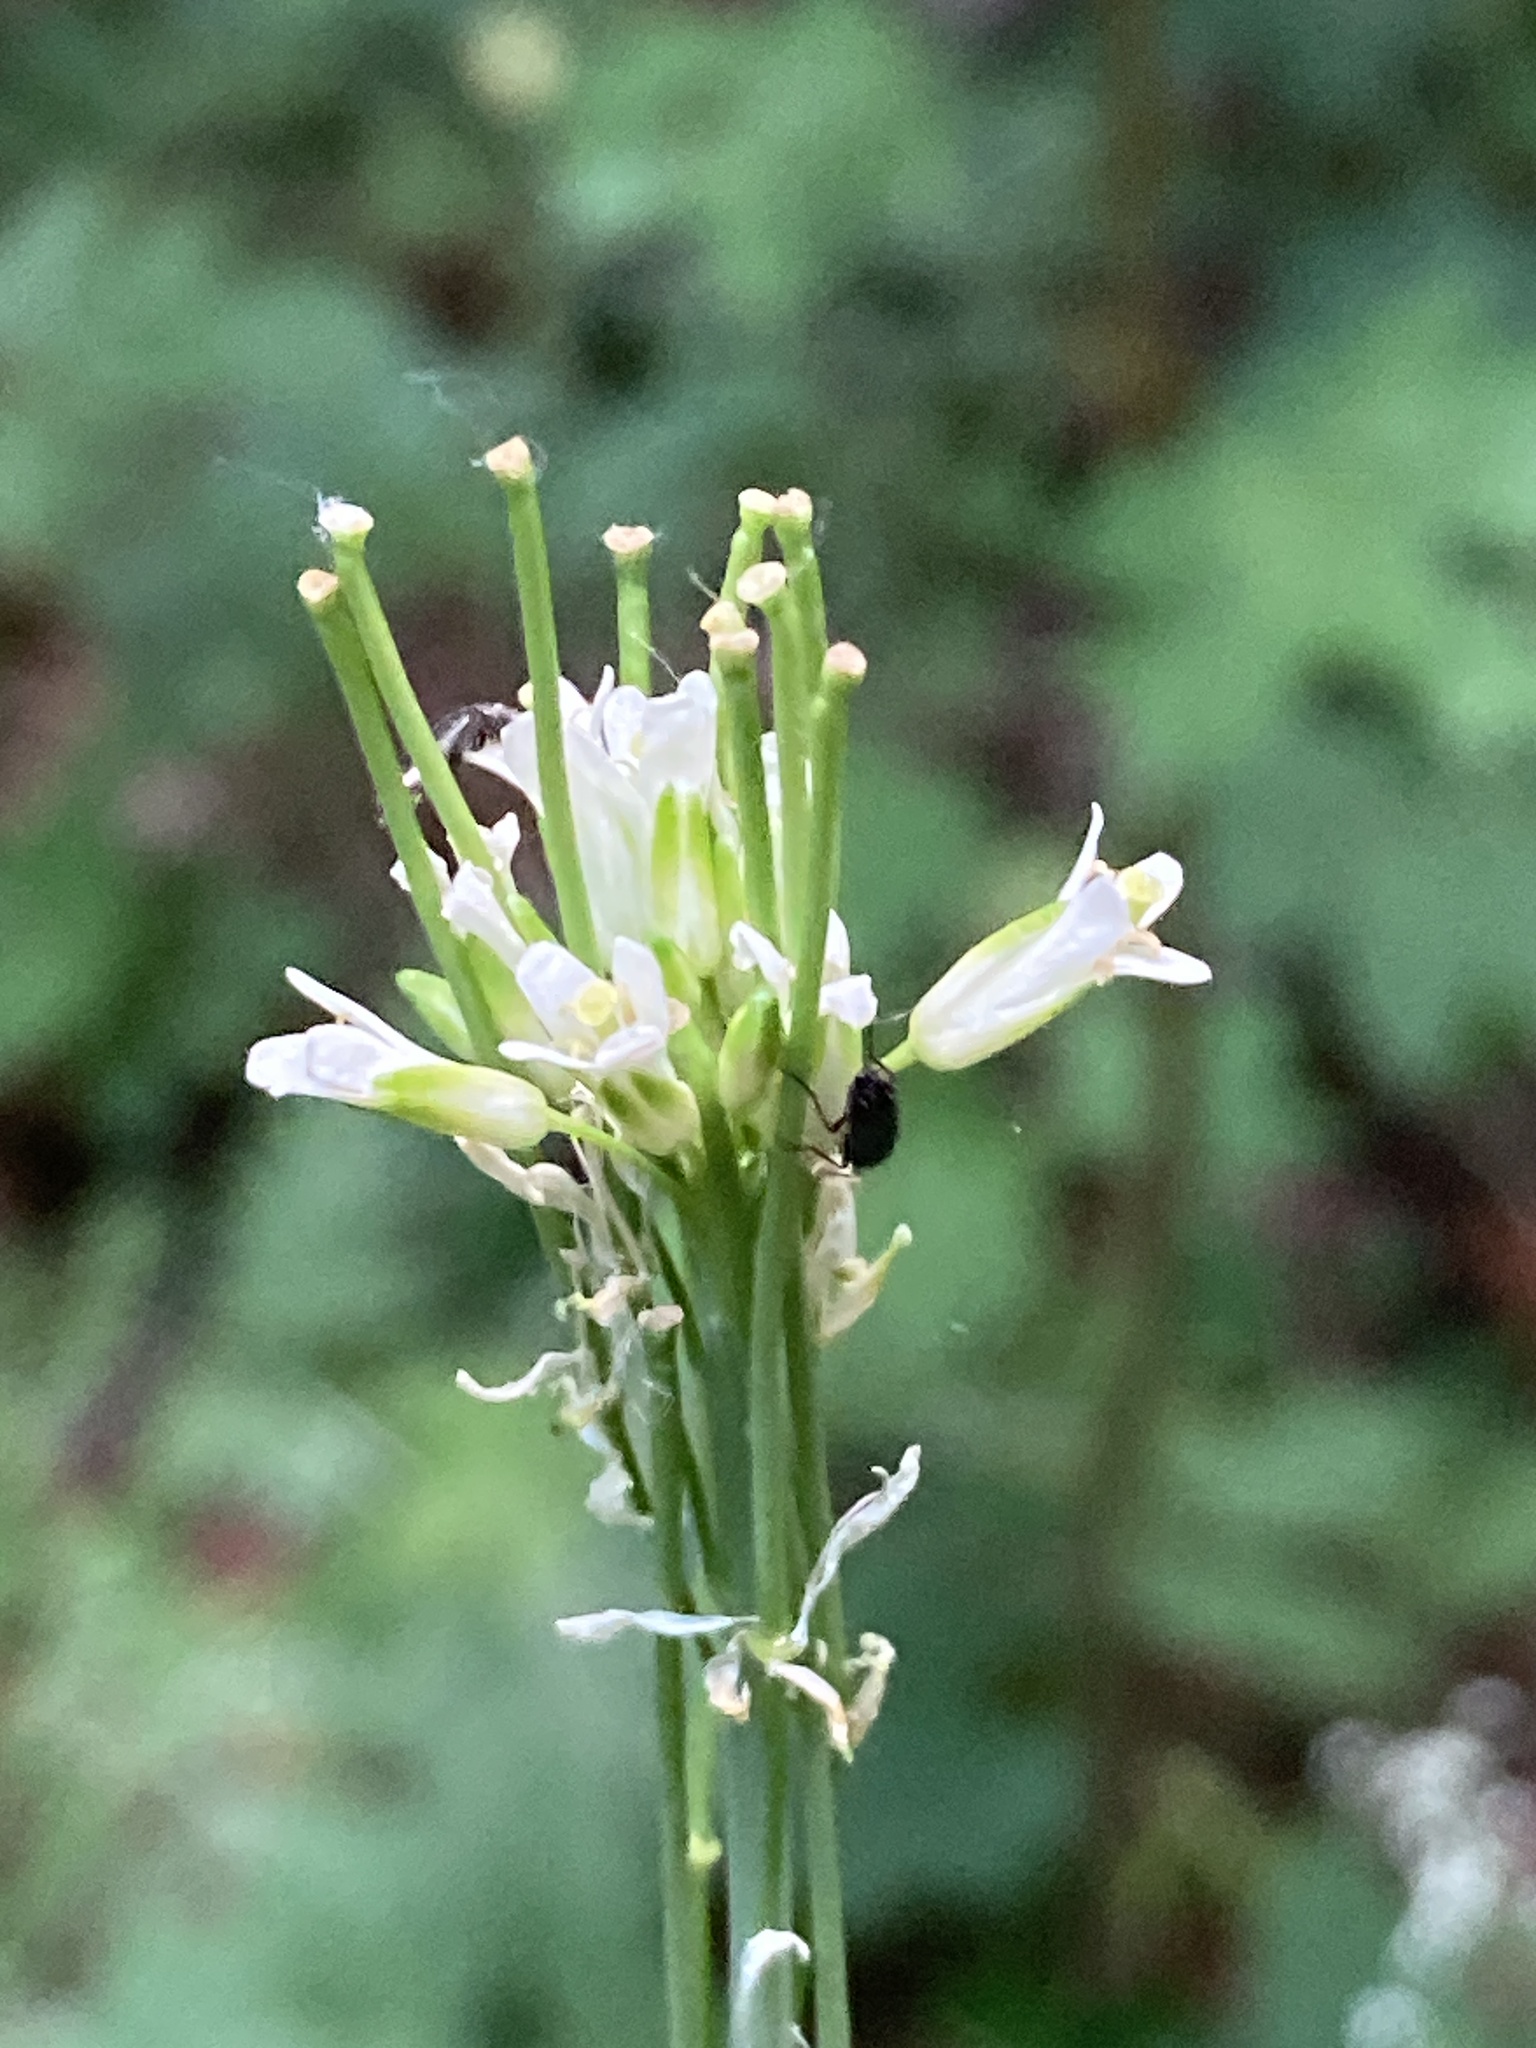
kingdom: Plantae
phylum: Tracheophyta
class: Magnoliopsida
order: Brassicales
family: Brassicaceae
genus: Turritis
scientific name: Turritis glabra
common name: Tower rockcress
